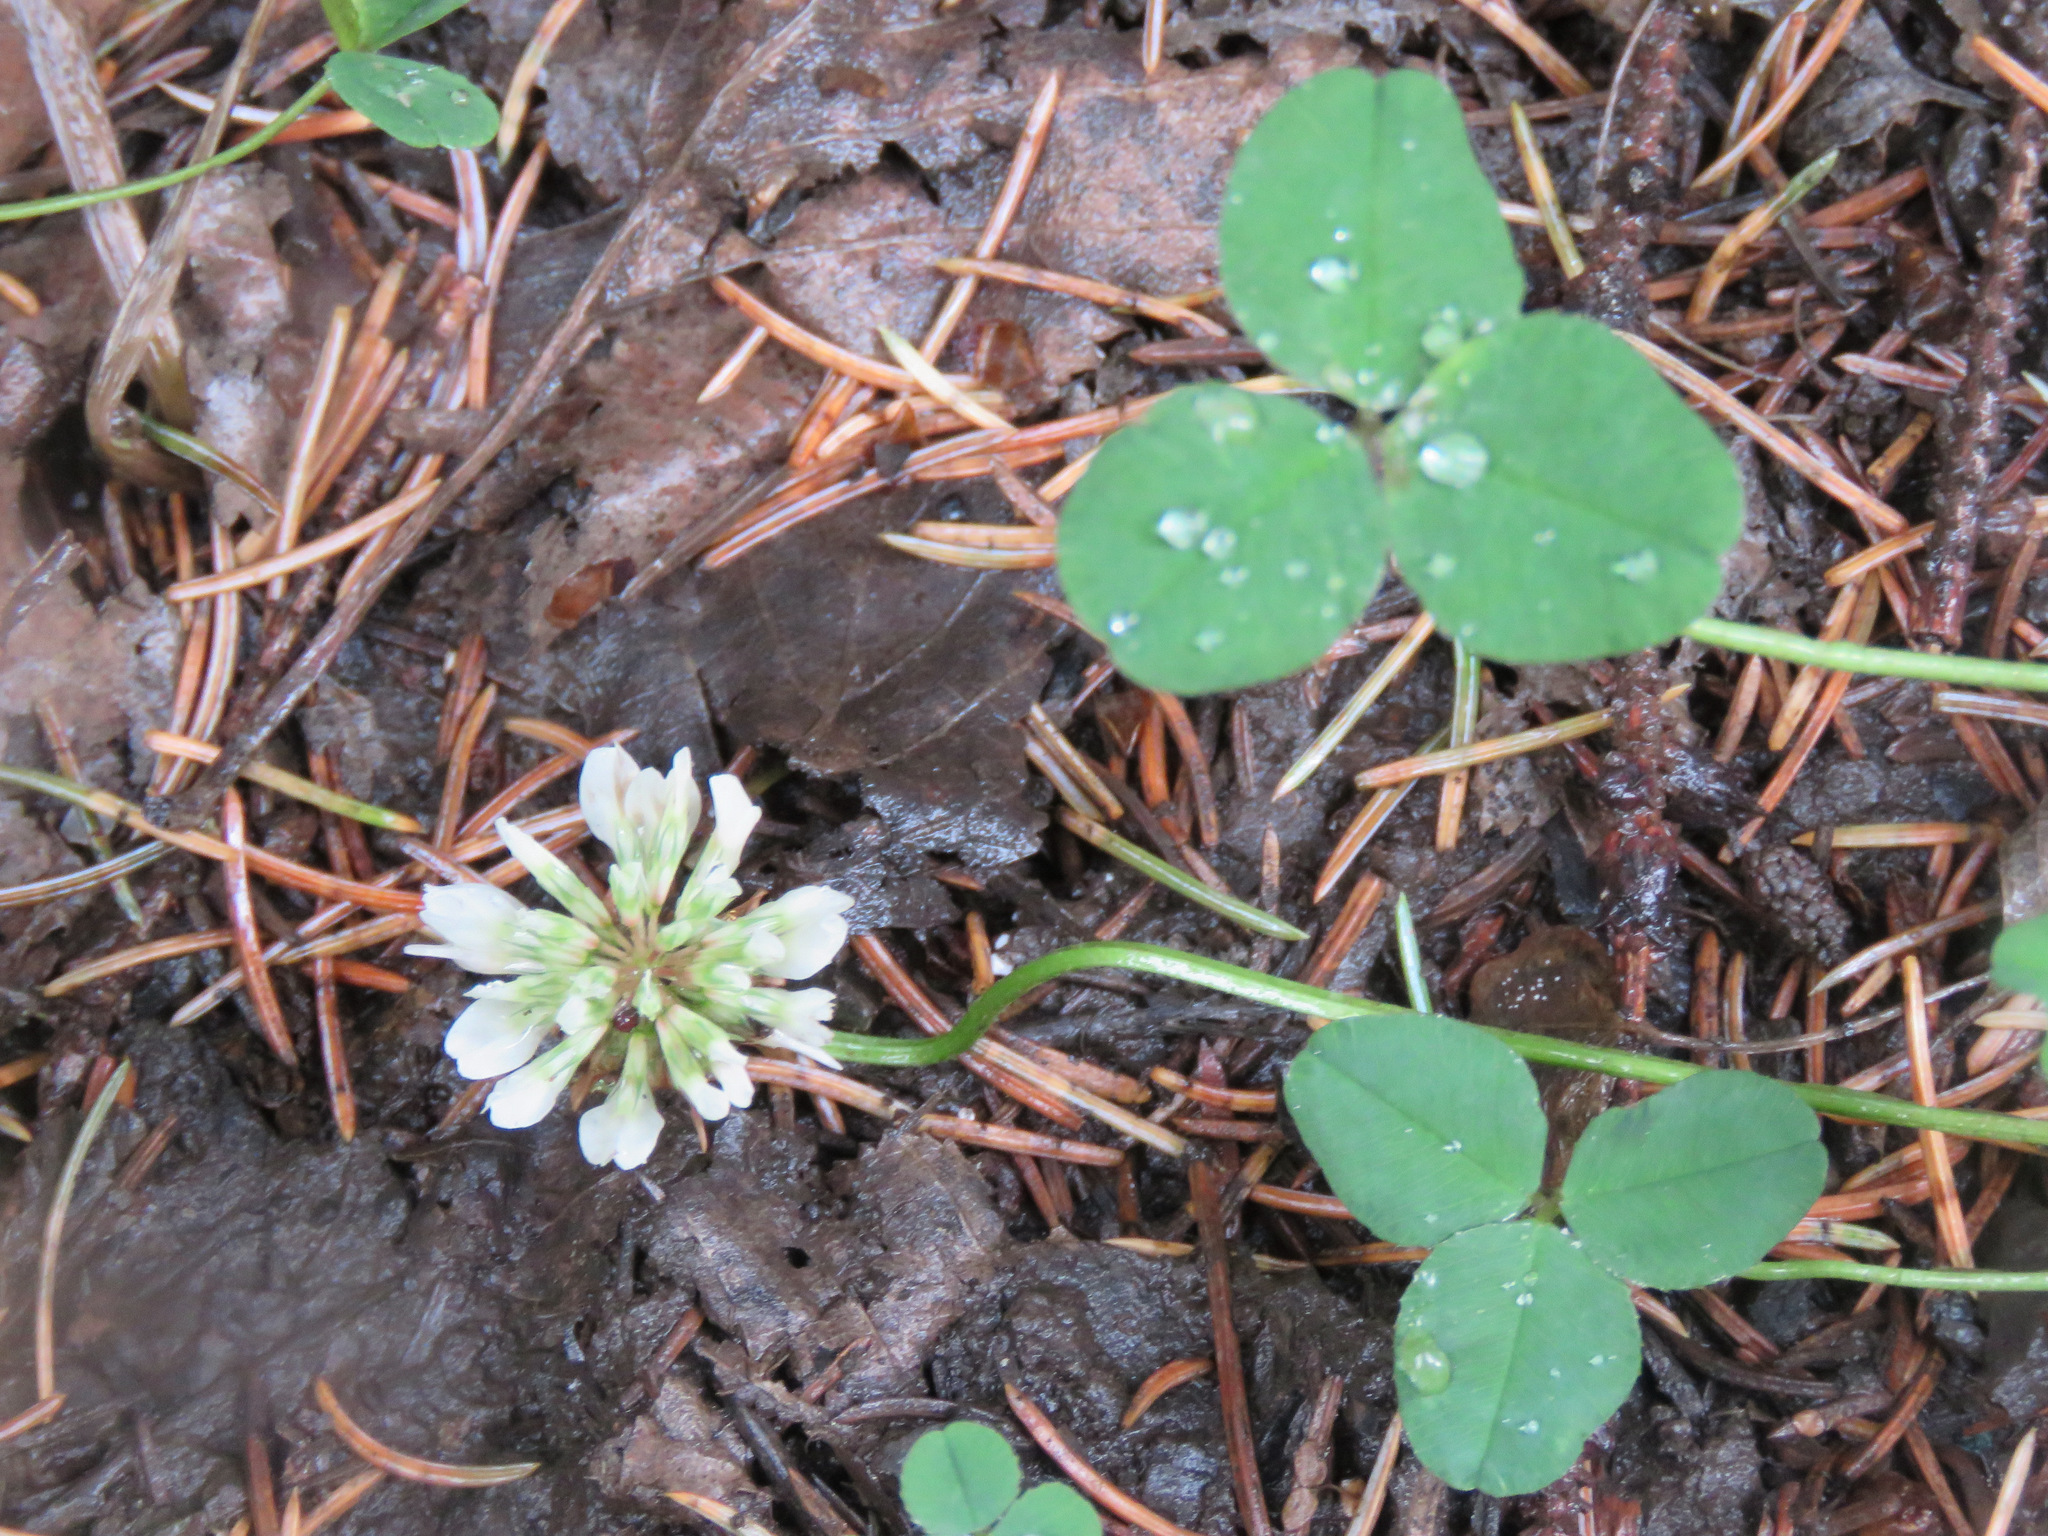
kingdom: Plantae
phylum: Tracheophyta
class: Magnoliopsida
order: Fabales
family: Fabaceae
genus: Trifolium
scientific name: Trifolium repens
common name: White clover
